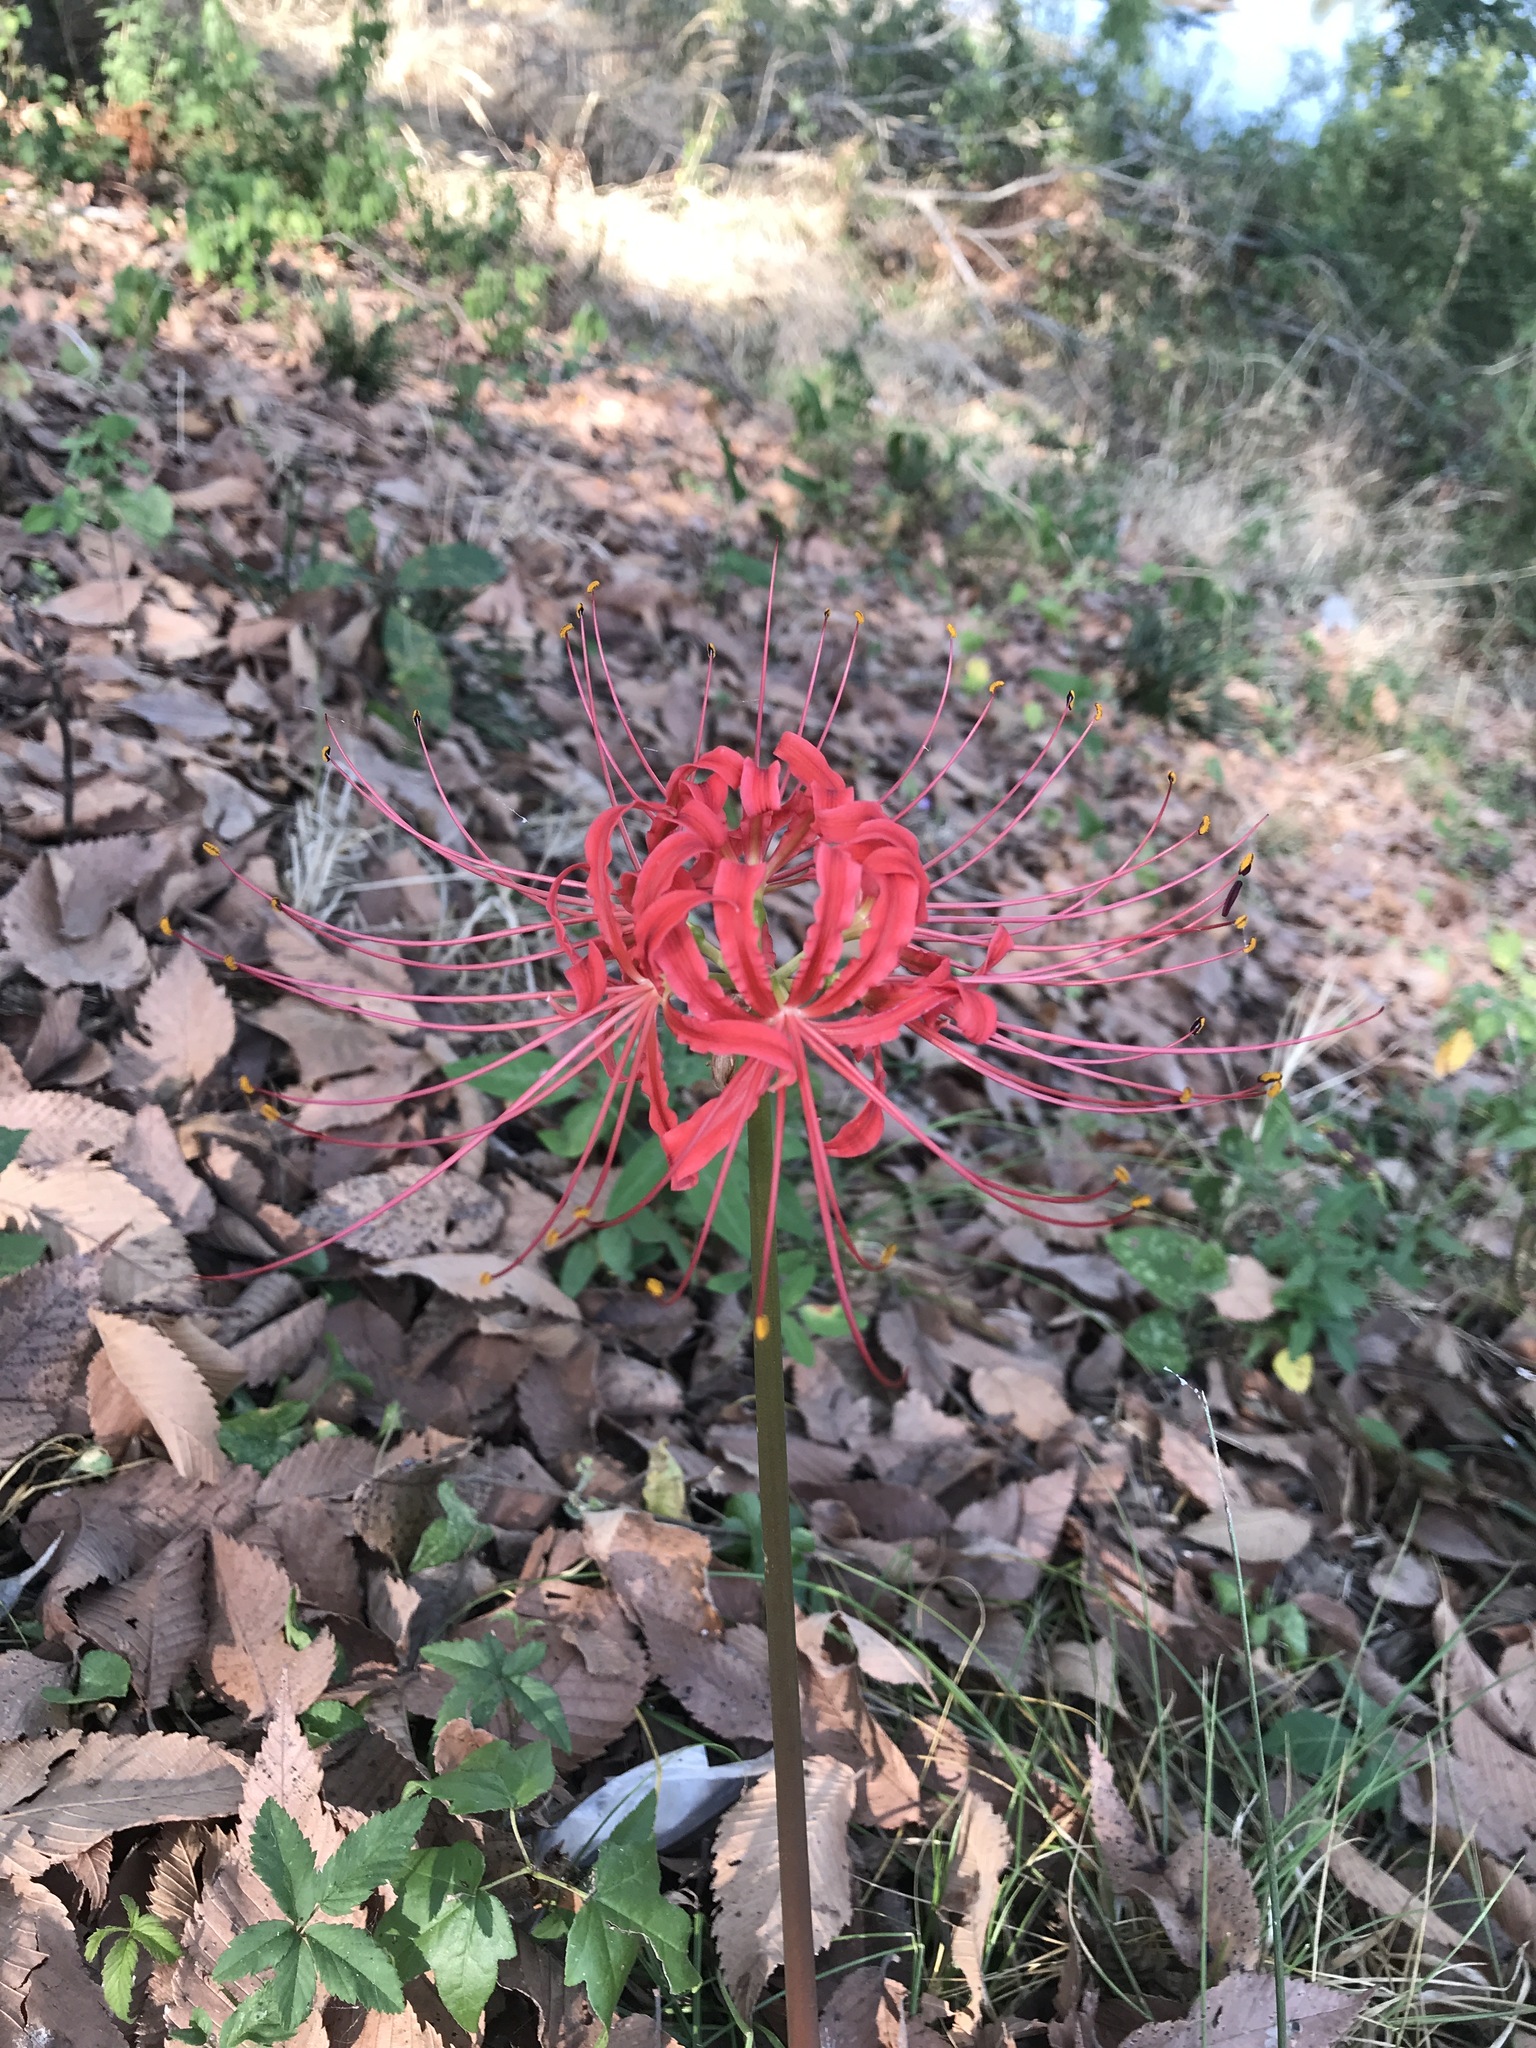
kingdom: Plantae
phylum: Tracheophyta
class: Liliopsida
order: Asparagales
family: Amaryllidaceae
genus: Lycoris
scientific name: Lycoris radiata
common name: Red spider lily
